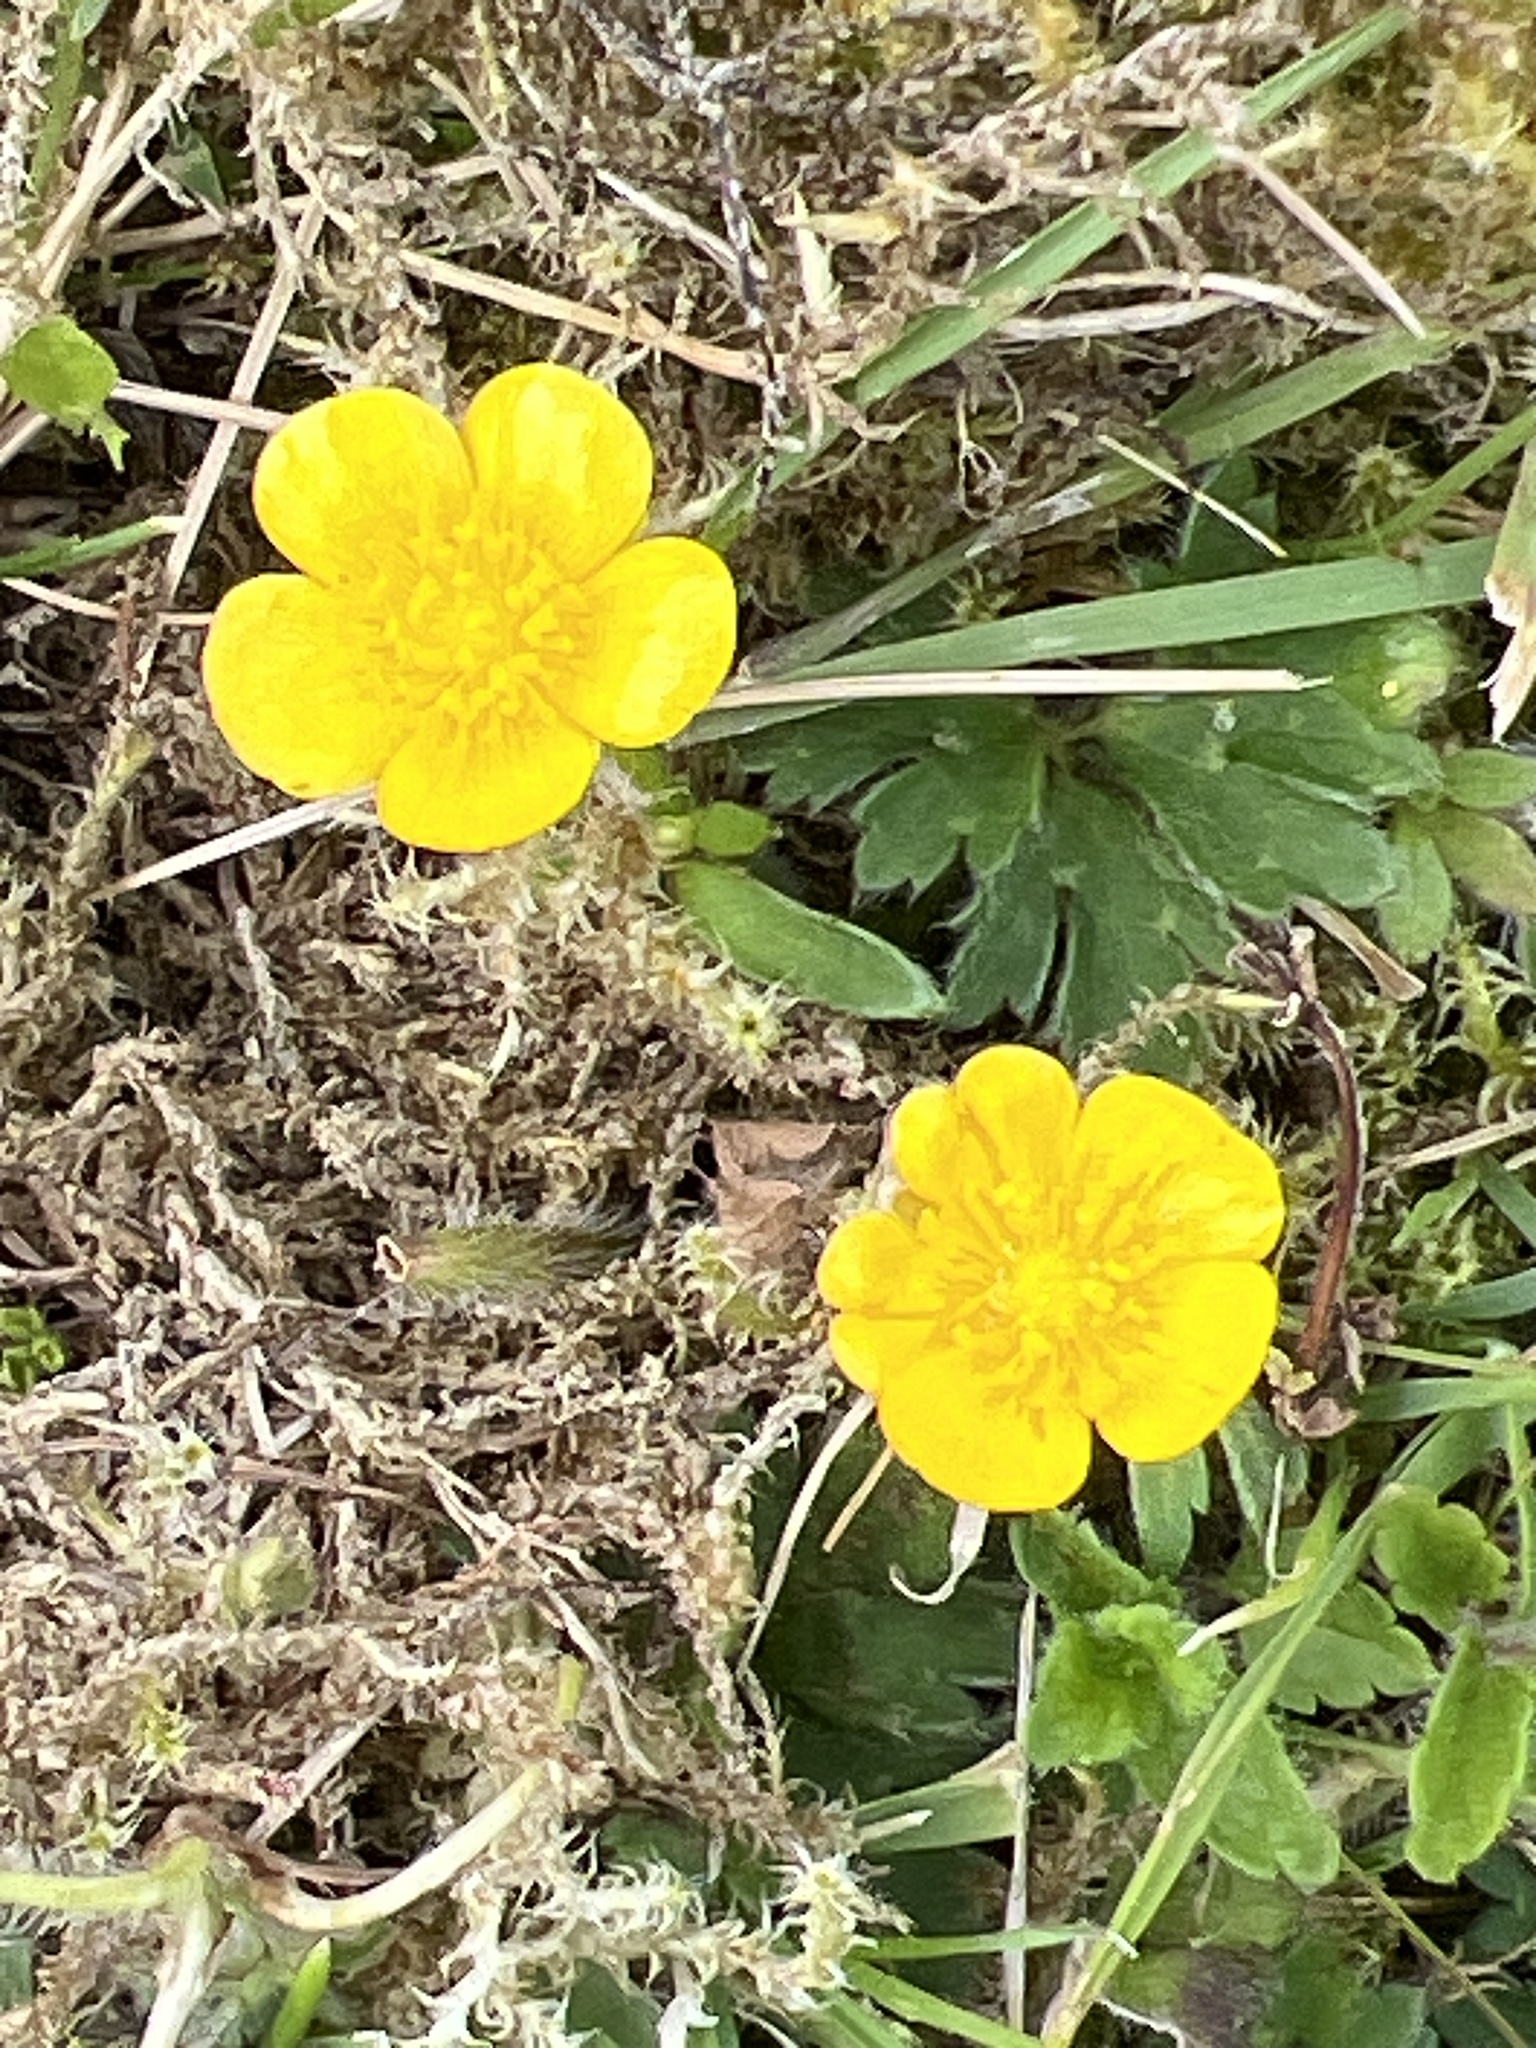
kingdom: Plantae
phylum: Tracheophyta
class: Magnoliopsida
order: Ranunculales
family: Ranunculaceae
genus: Ranunculus
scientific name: Ranunculus repens
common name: Creeping buttercup
